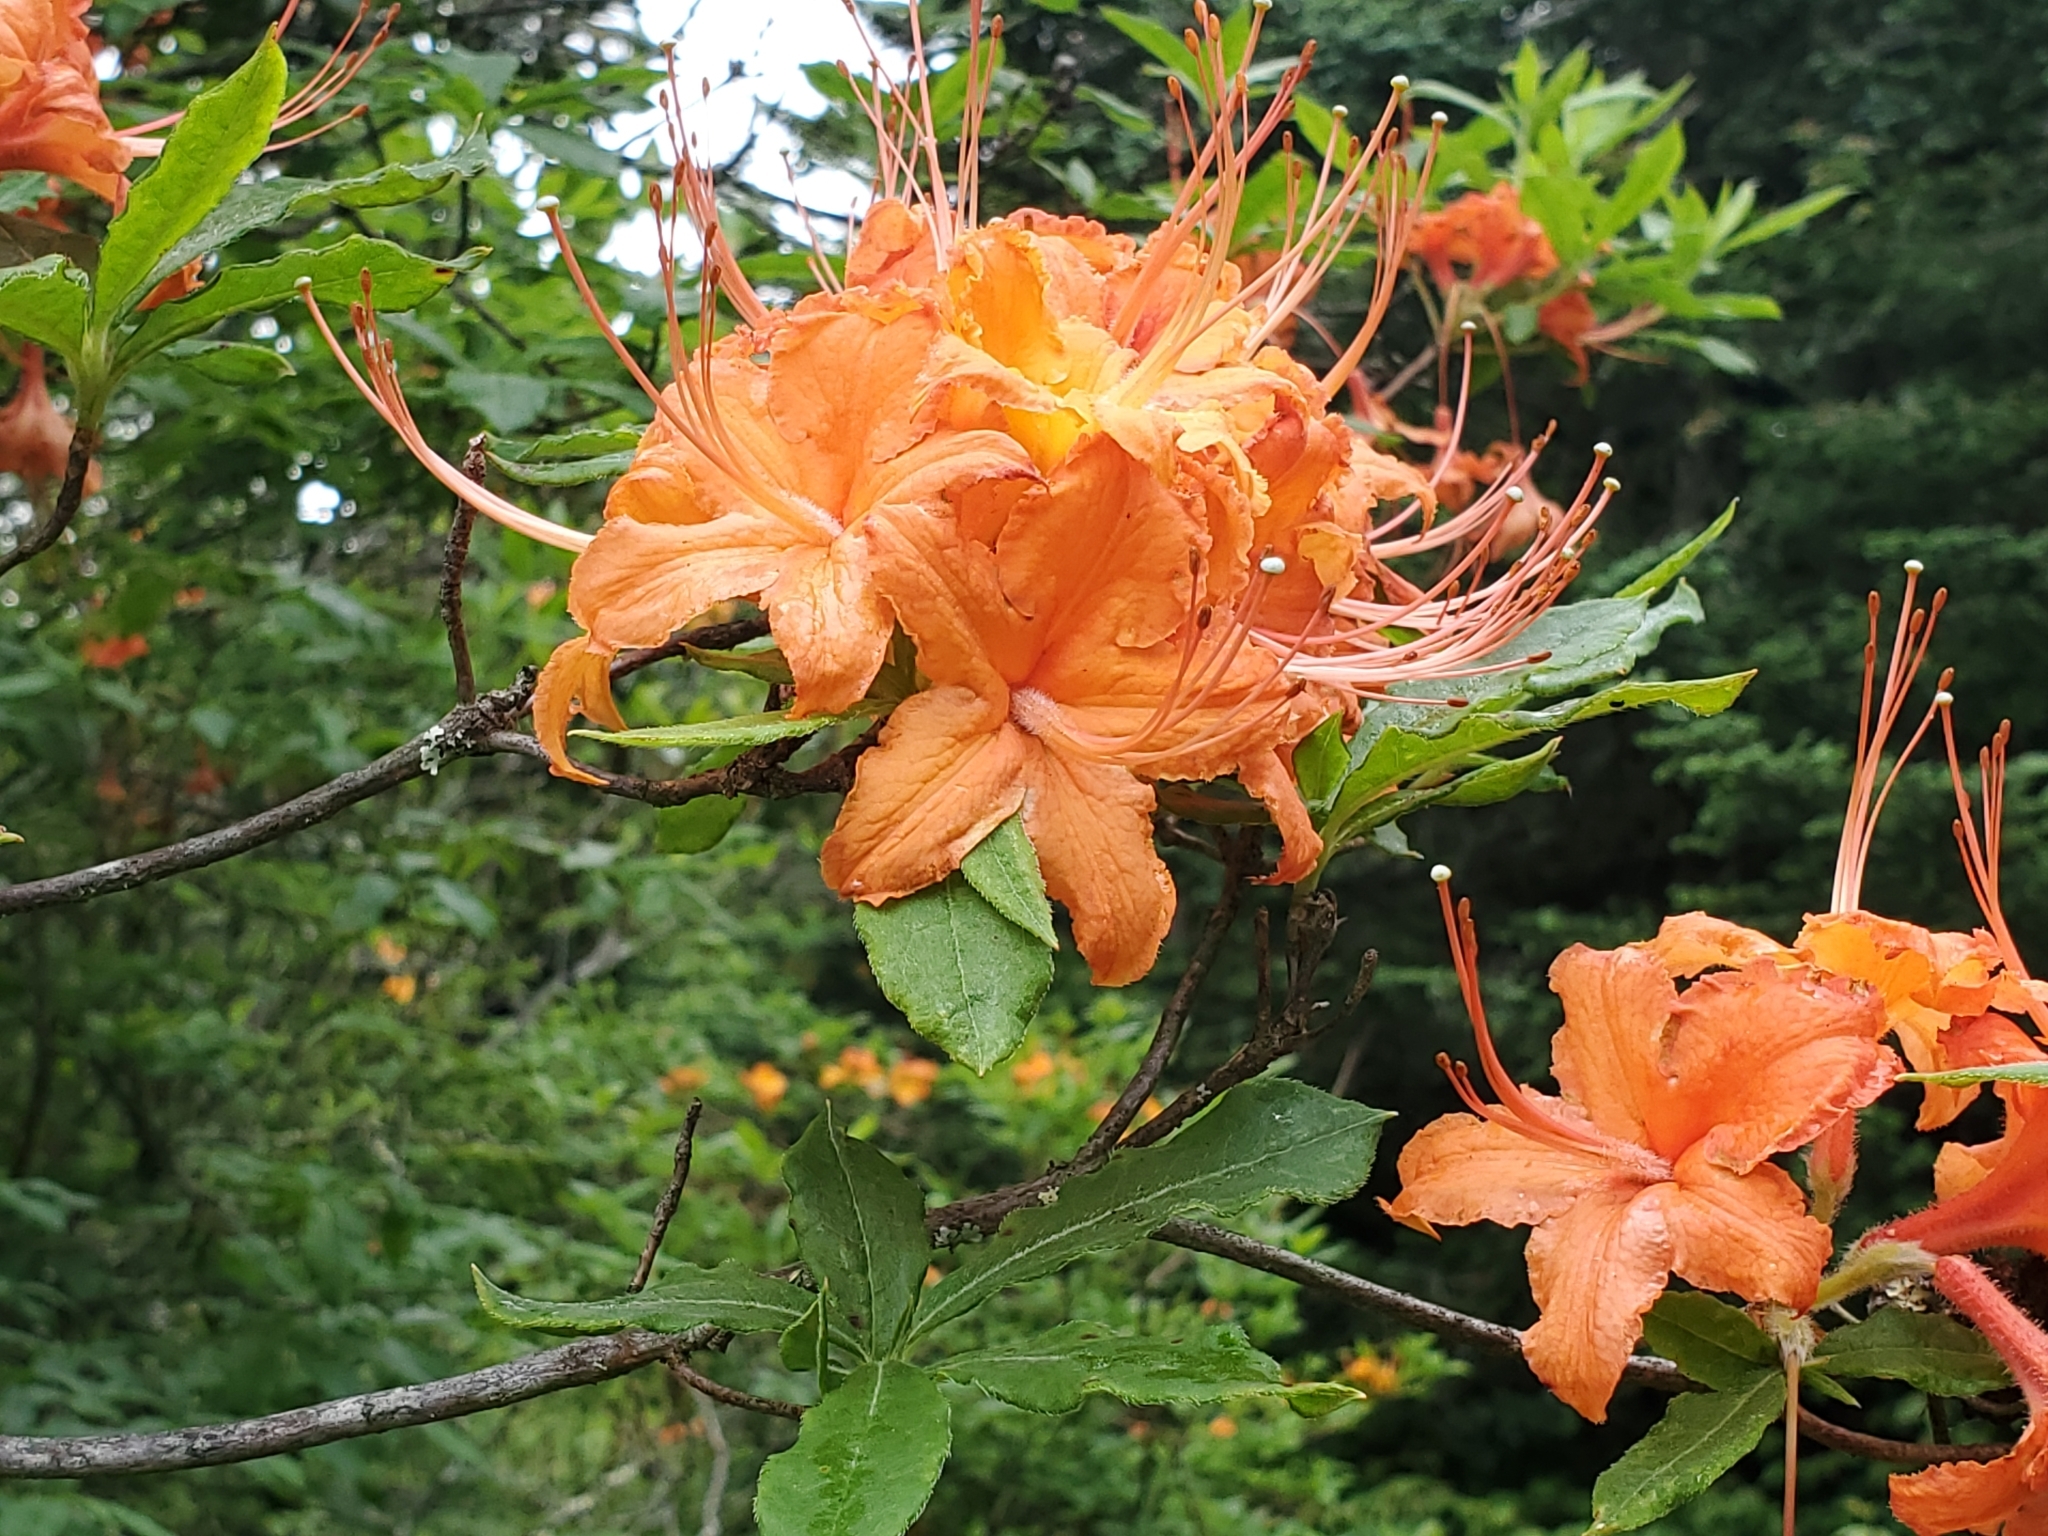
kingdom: Plantae
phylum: Tracheophyta
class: Magnoliopsida
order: Ericales
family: Ericaceae
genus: Rhododendron
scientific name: Rhododendron calendulaceum
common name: Flame azalea
